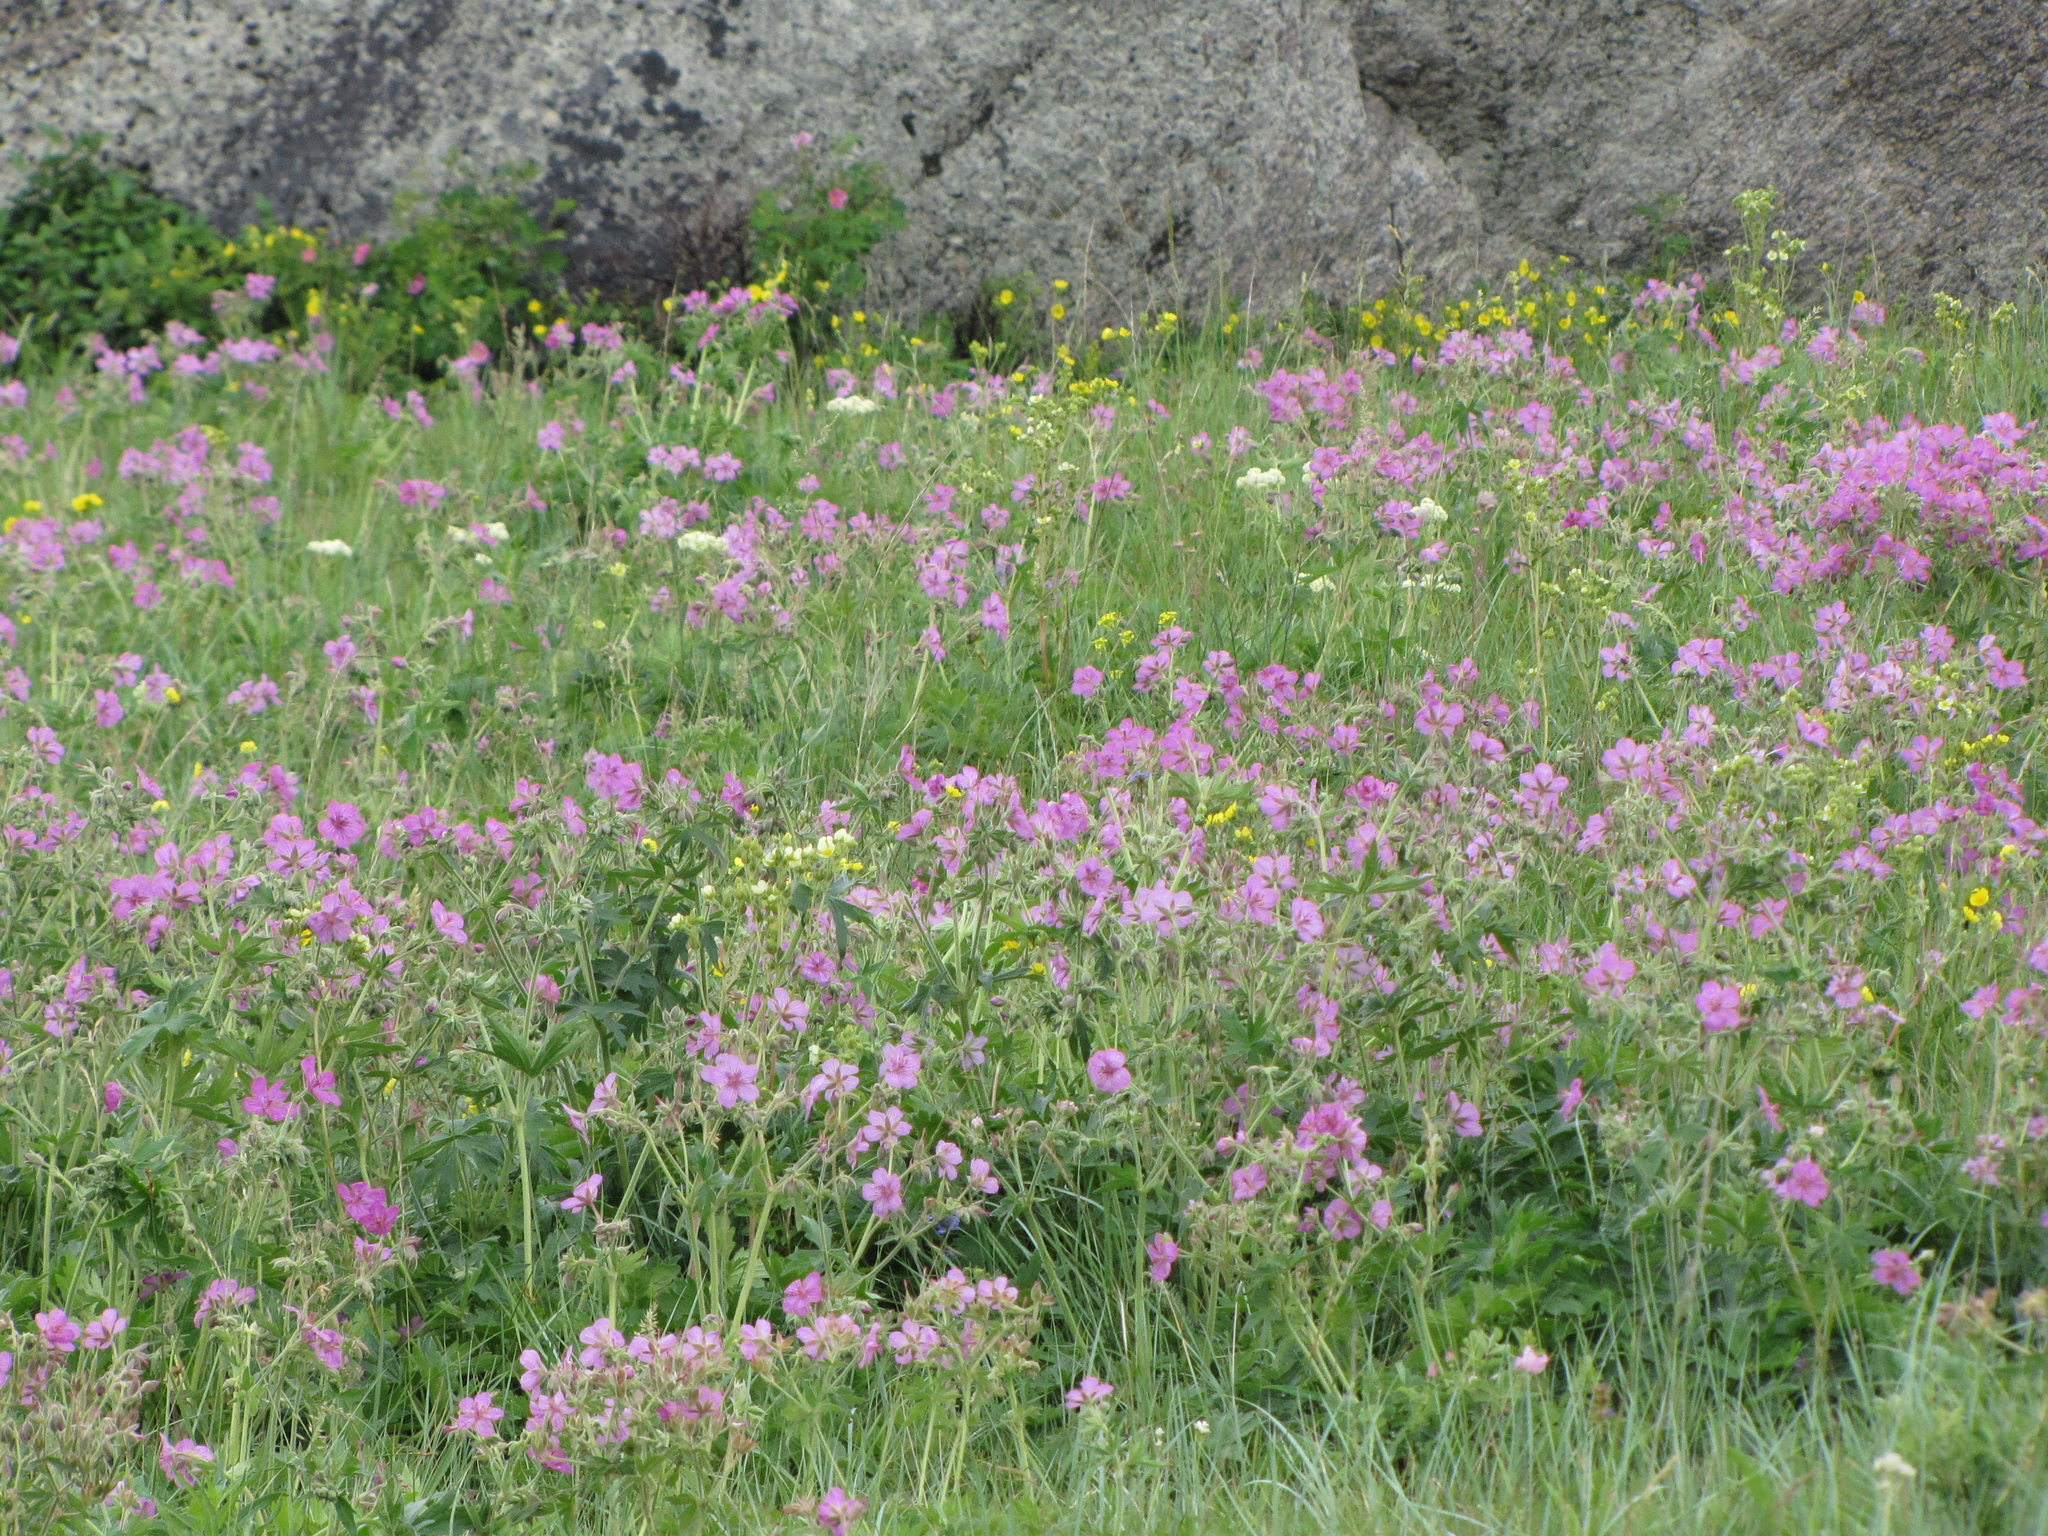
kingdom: Plantae
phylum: Tracheophyta
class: Magnoliopsida
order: Geraniales
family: Geraniaceae
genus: Geranium
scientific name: Geranium viscosissimum
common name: Purple geranium
